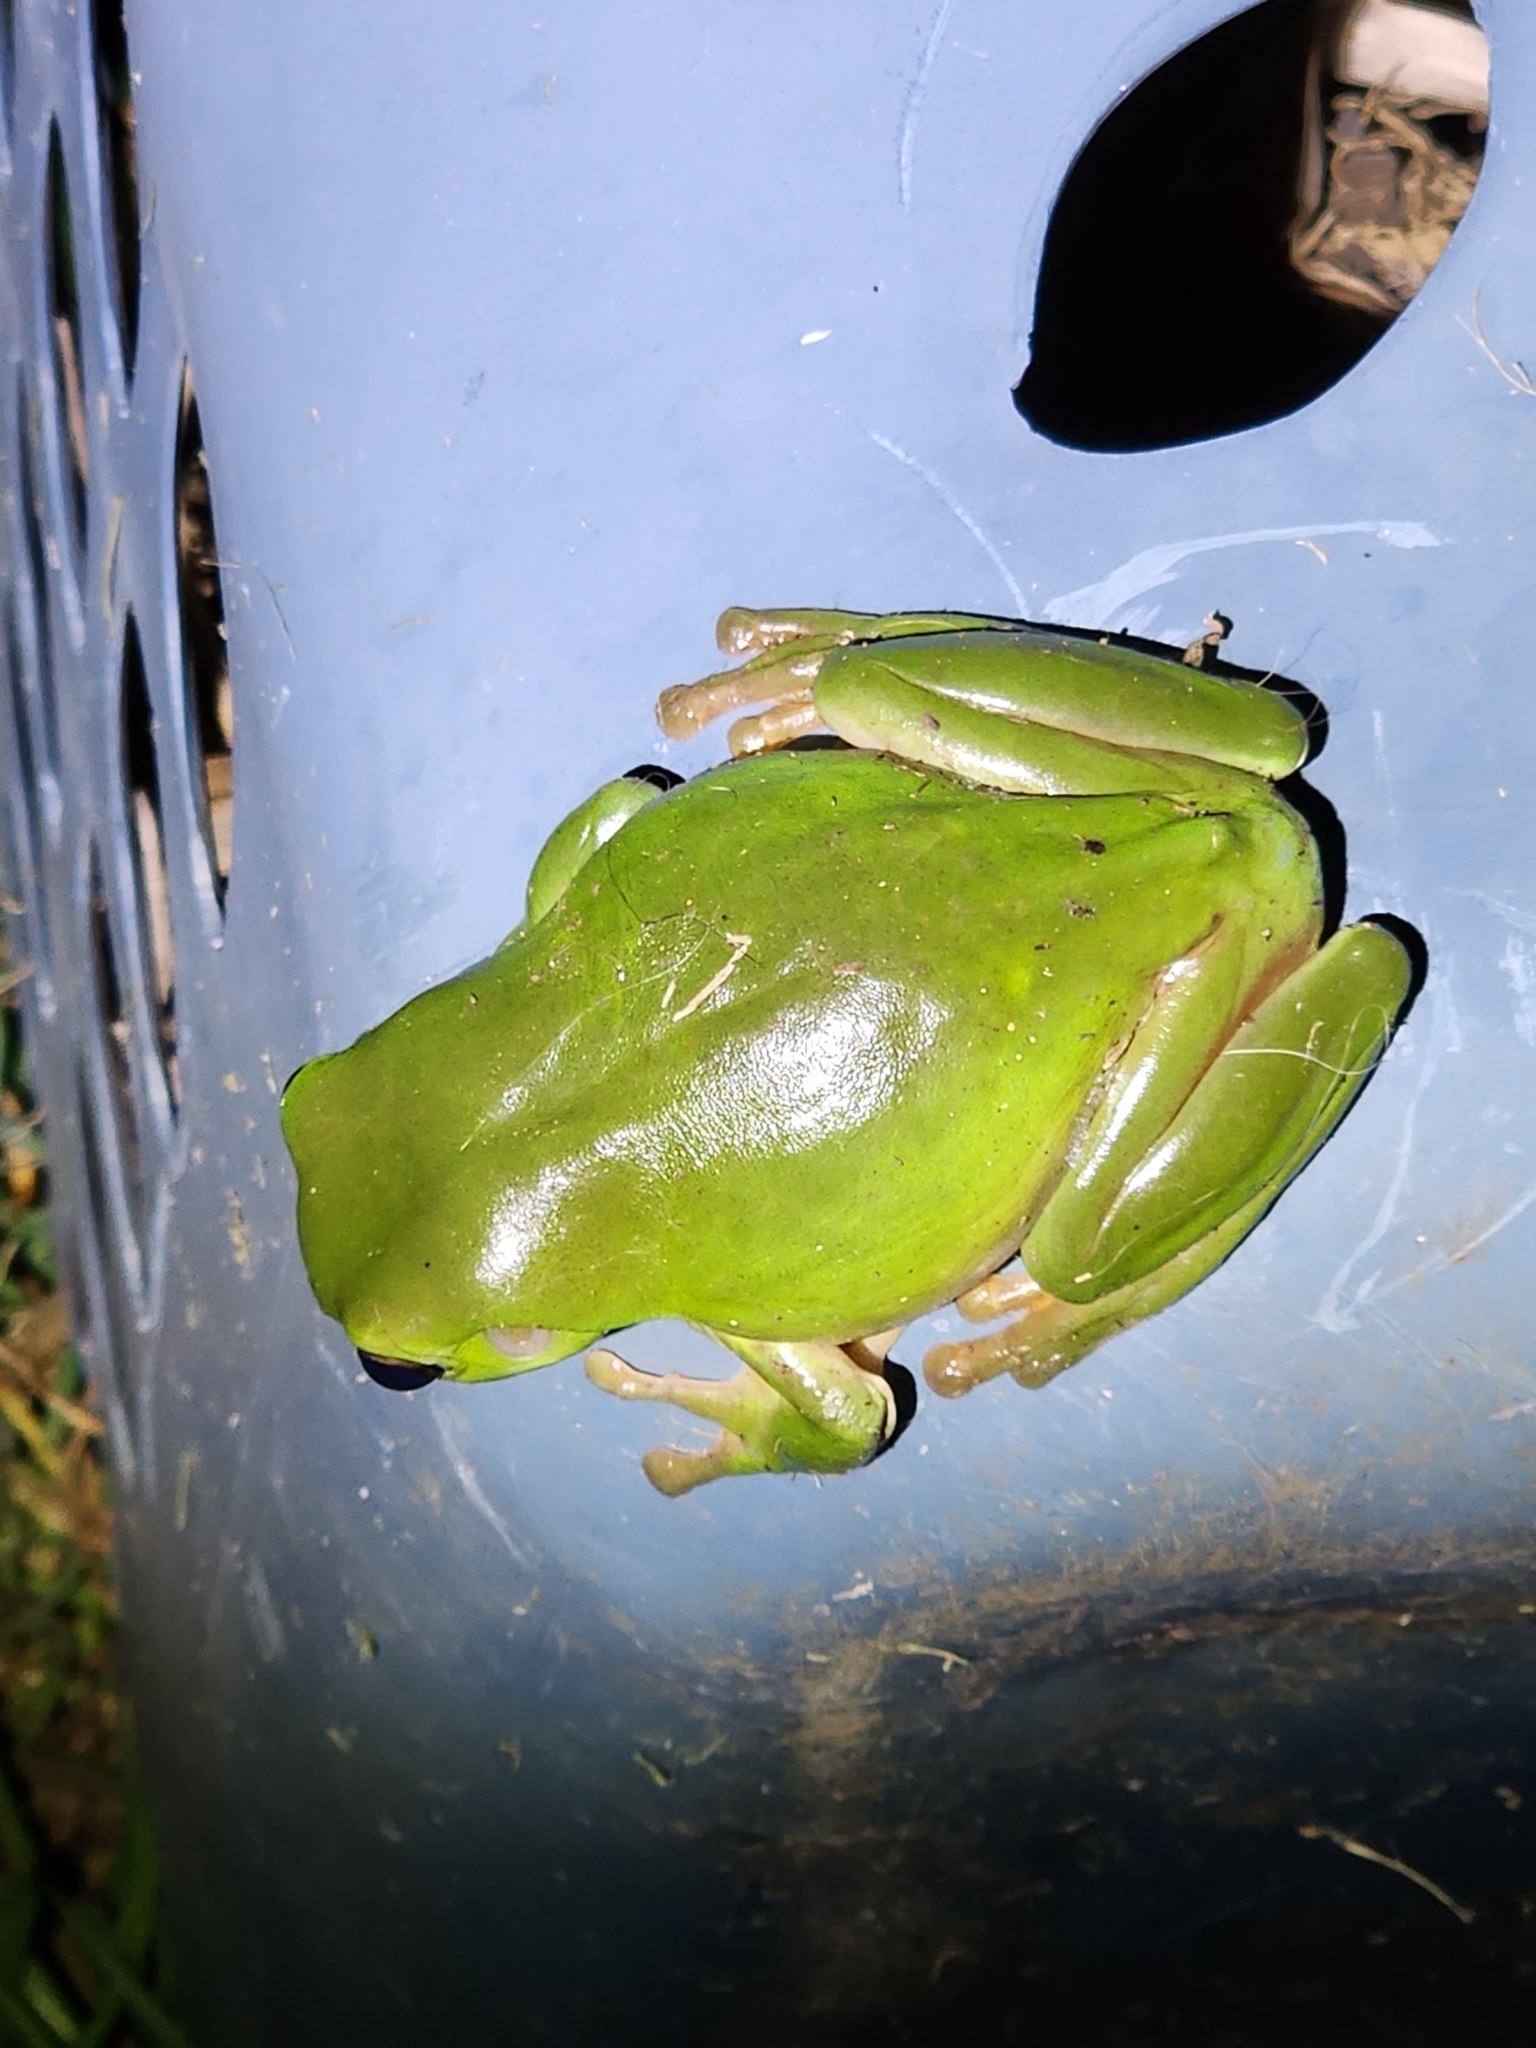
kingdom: Animalia
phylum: Chordata
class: Amphibia
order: Anura
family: Pelodryadidae
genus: Ranoidea
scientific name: Ranoidea caerulea
